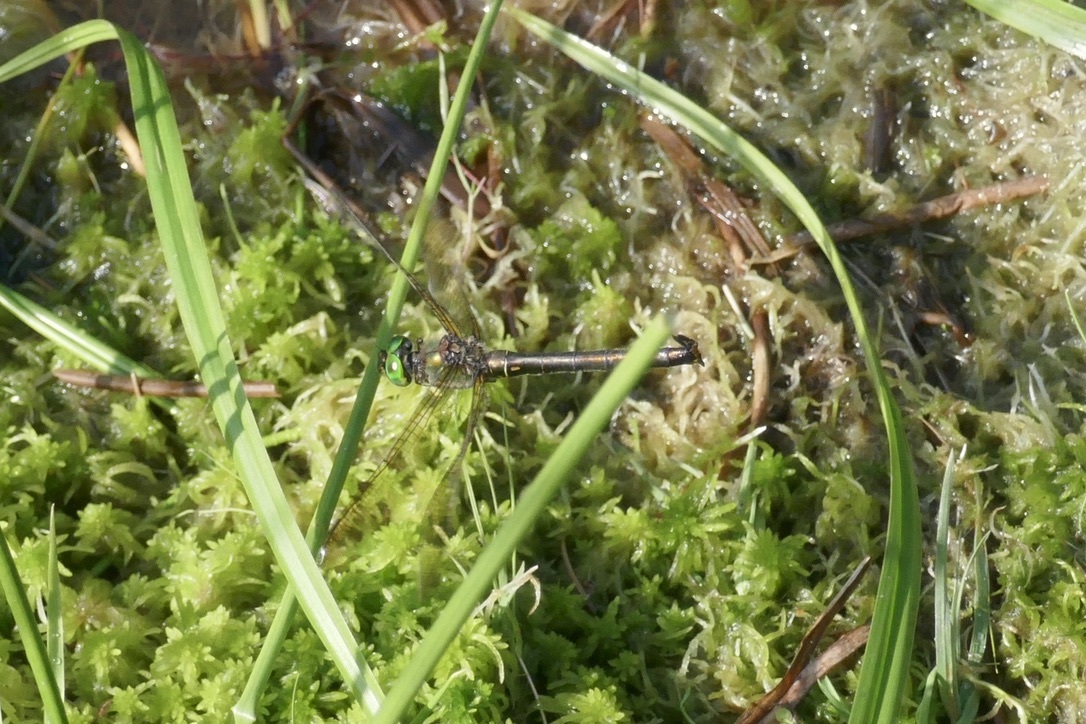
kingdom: Animalia
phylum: Arthropoda
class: Insecta
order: Odonata
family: Corduliidae
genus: Somatochlora
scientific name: Somatochlora metallica
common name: Brilliant emerald
